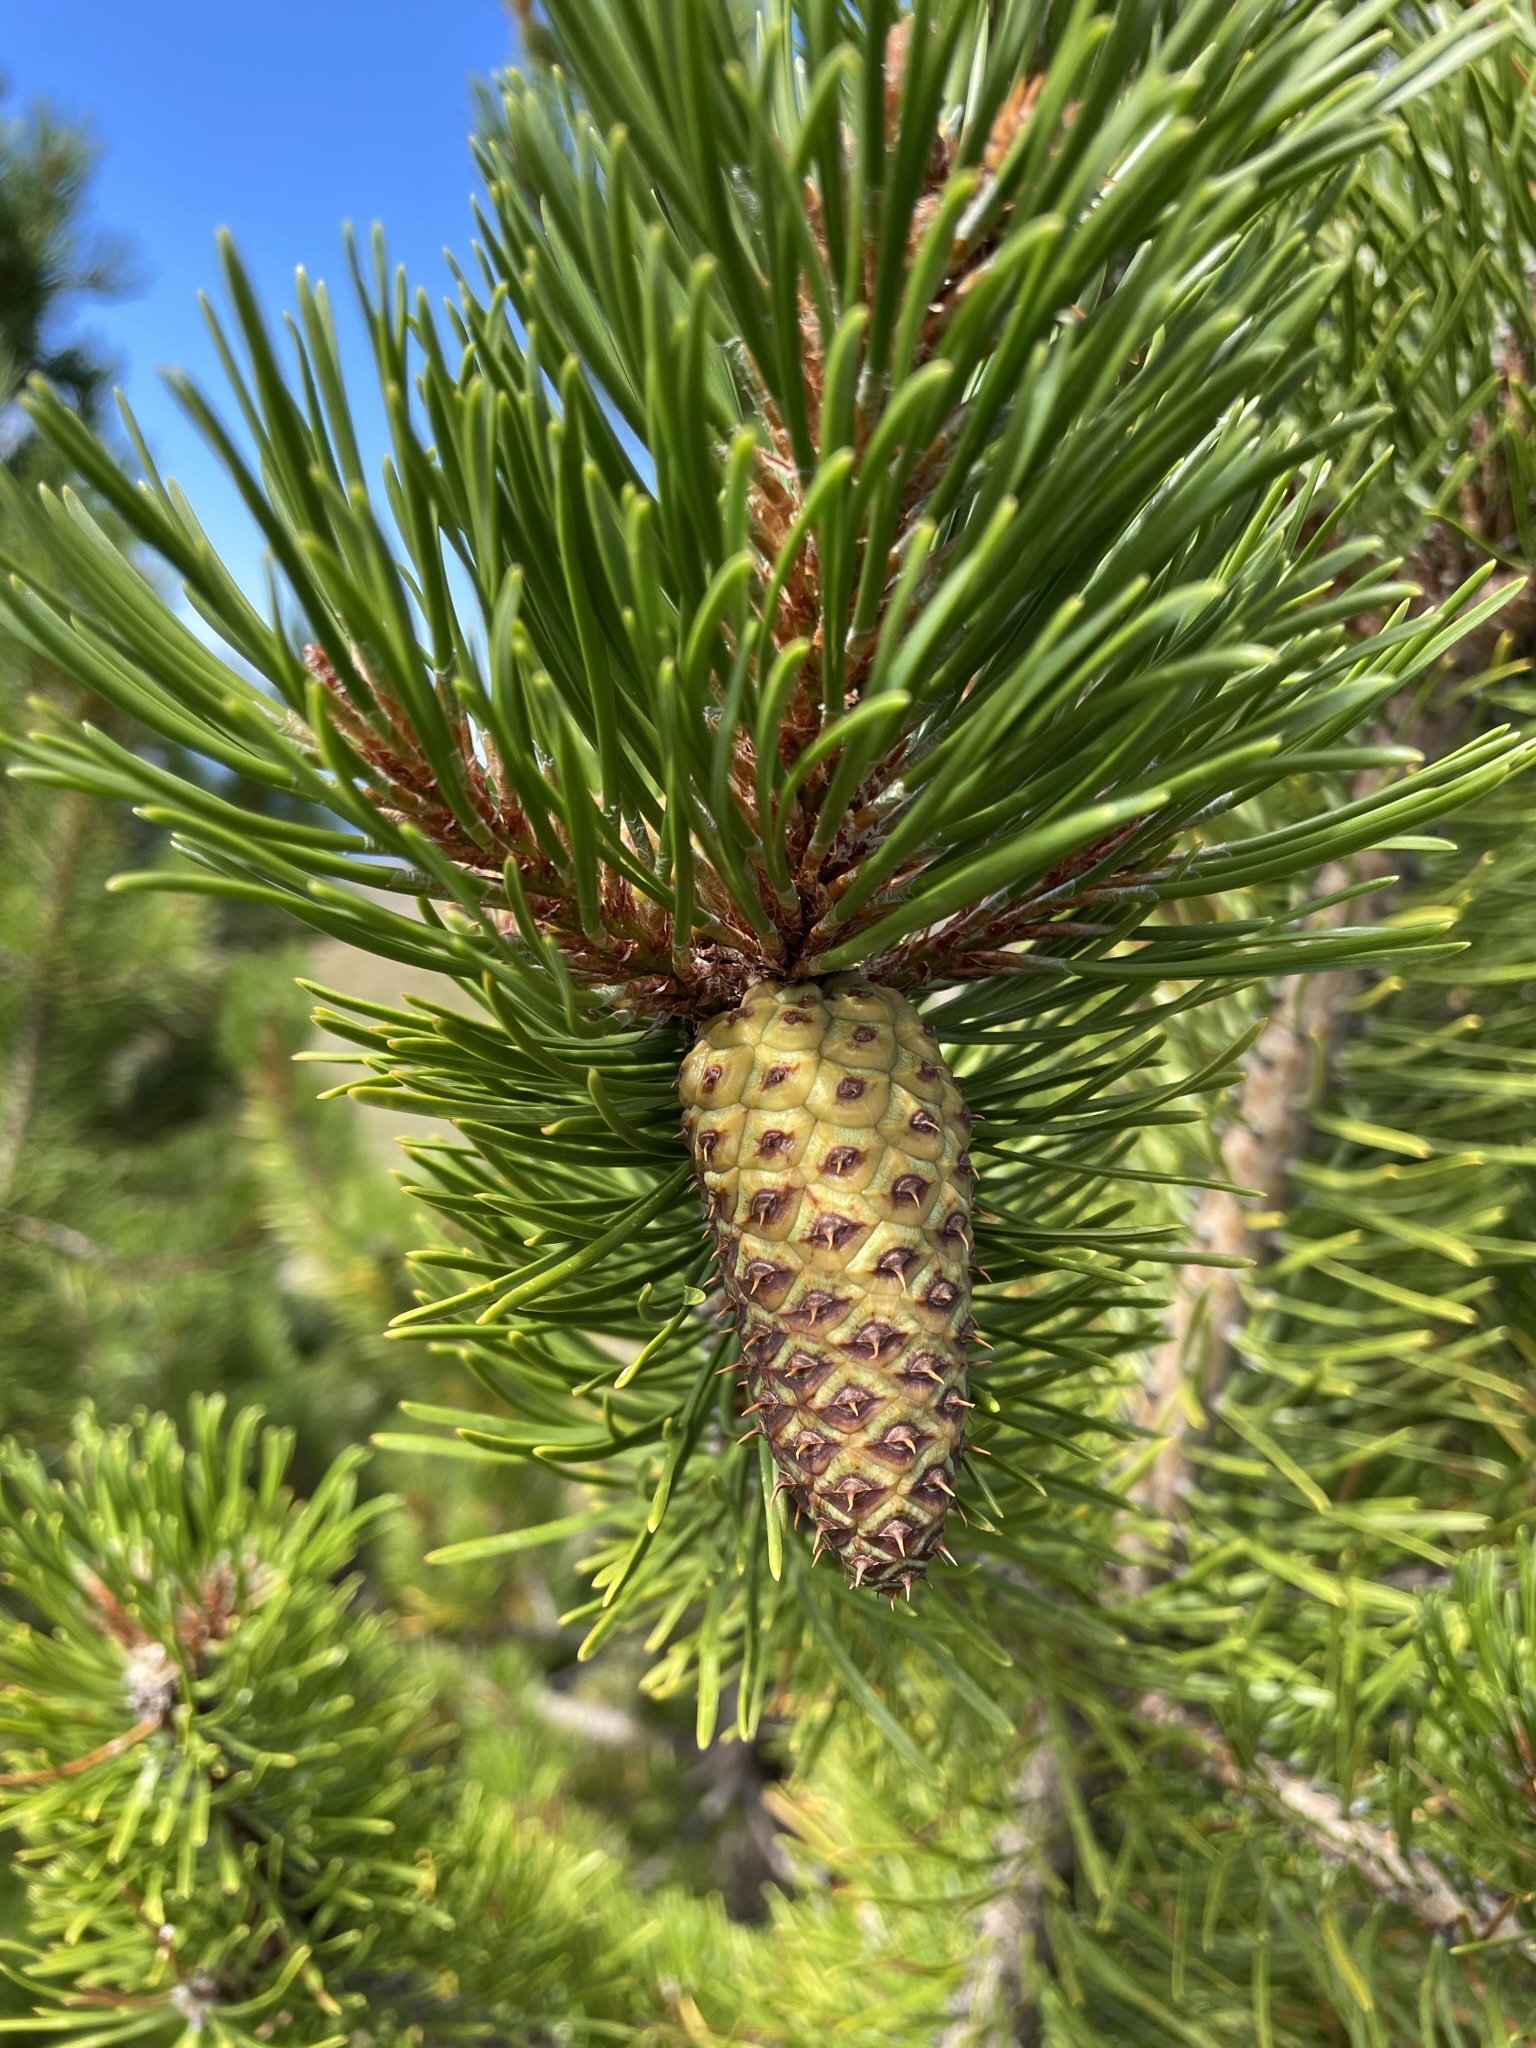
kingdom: Plantae
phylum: Tracheophyta
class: Pinopsida
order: Pinales
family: Pinaceae
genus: Pinus
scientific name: Pinus contorta
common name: Lodgepole pine
